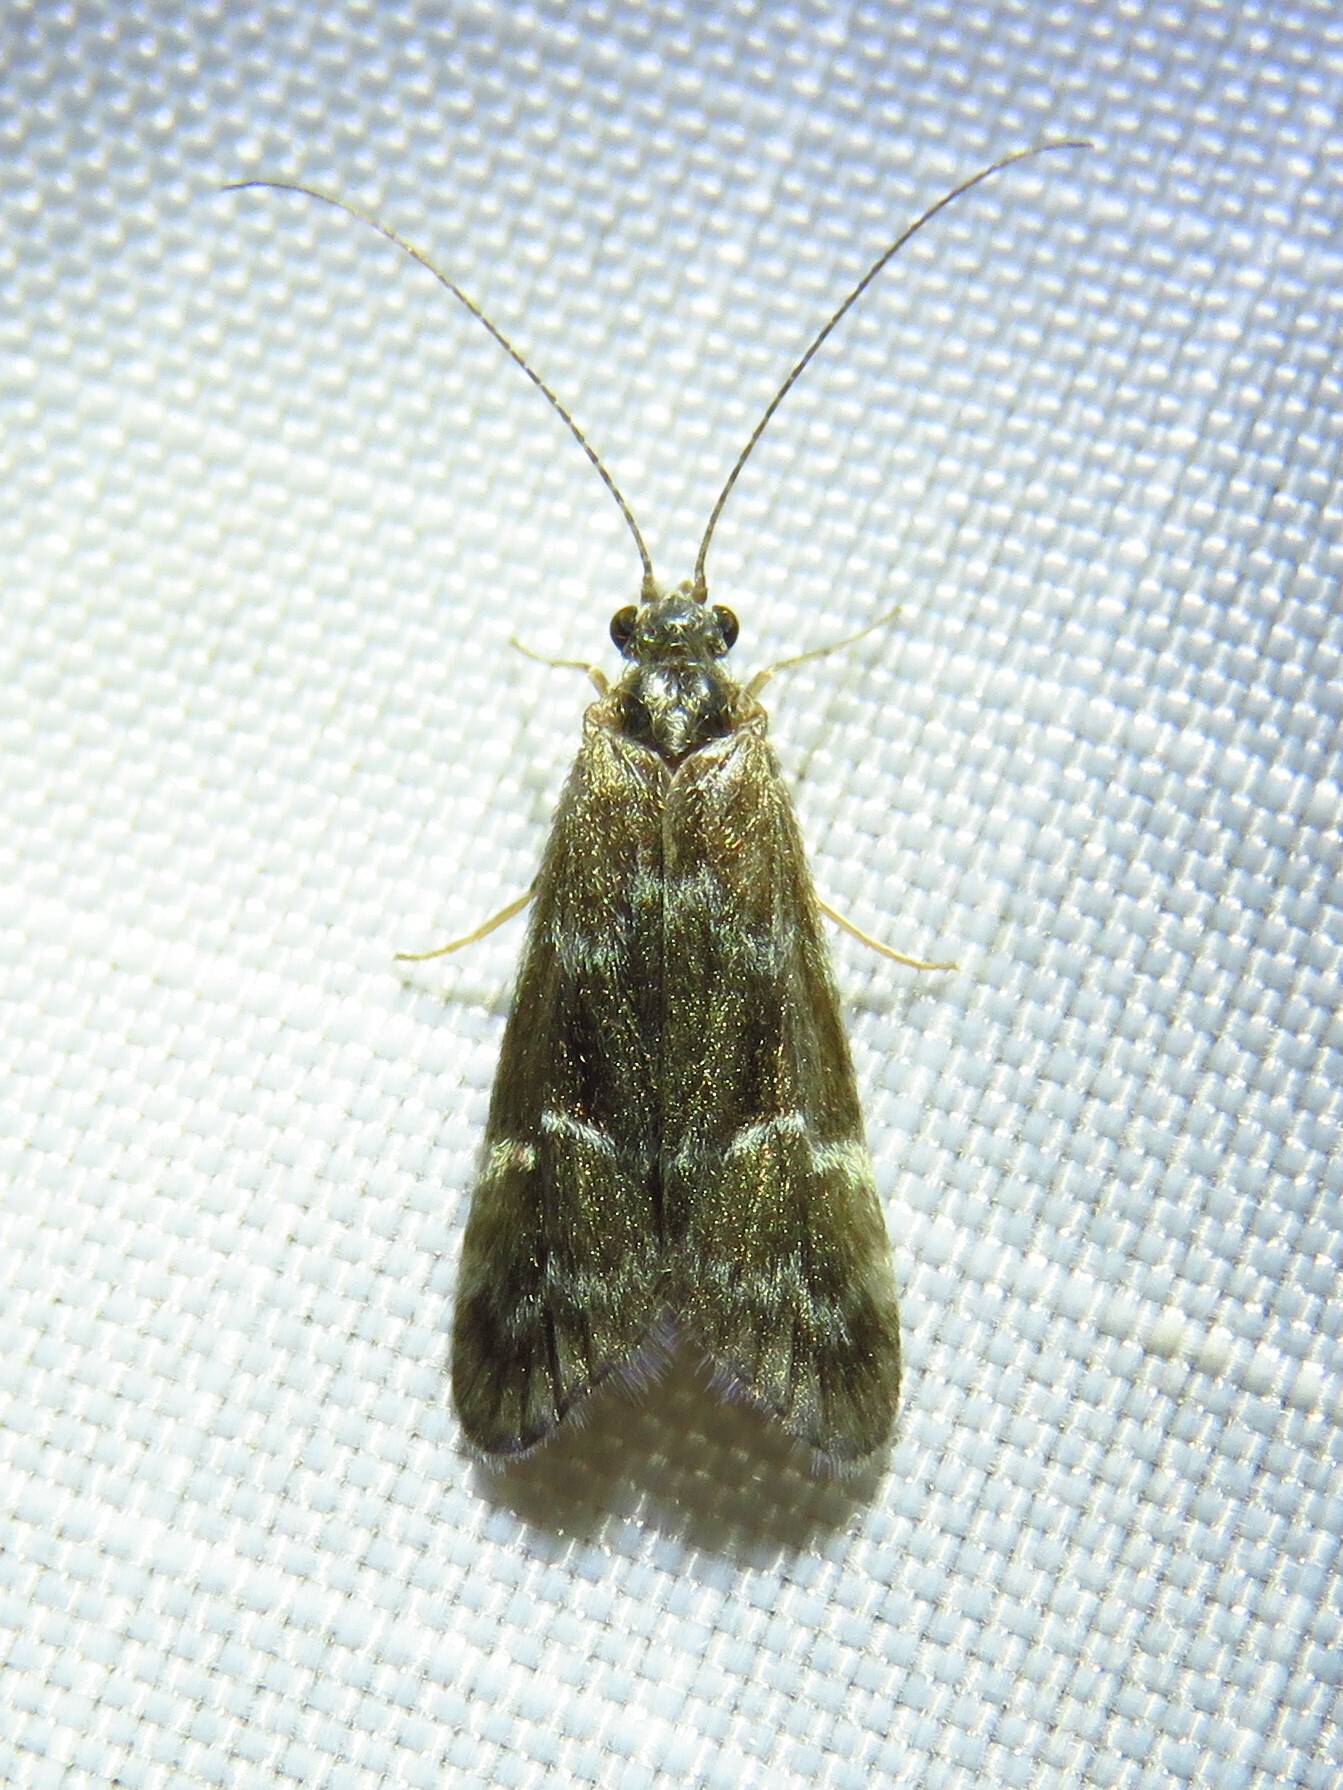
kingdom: Animalia
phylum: Arthropoda
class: Insecta
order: Trichoptera
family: Hydropsychidae
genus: Smicridea
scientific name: Smicridea fasciatella
